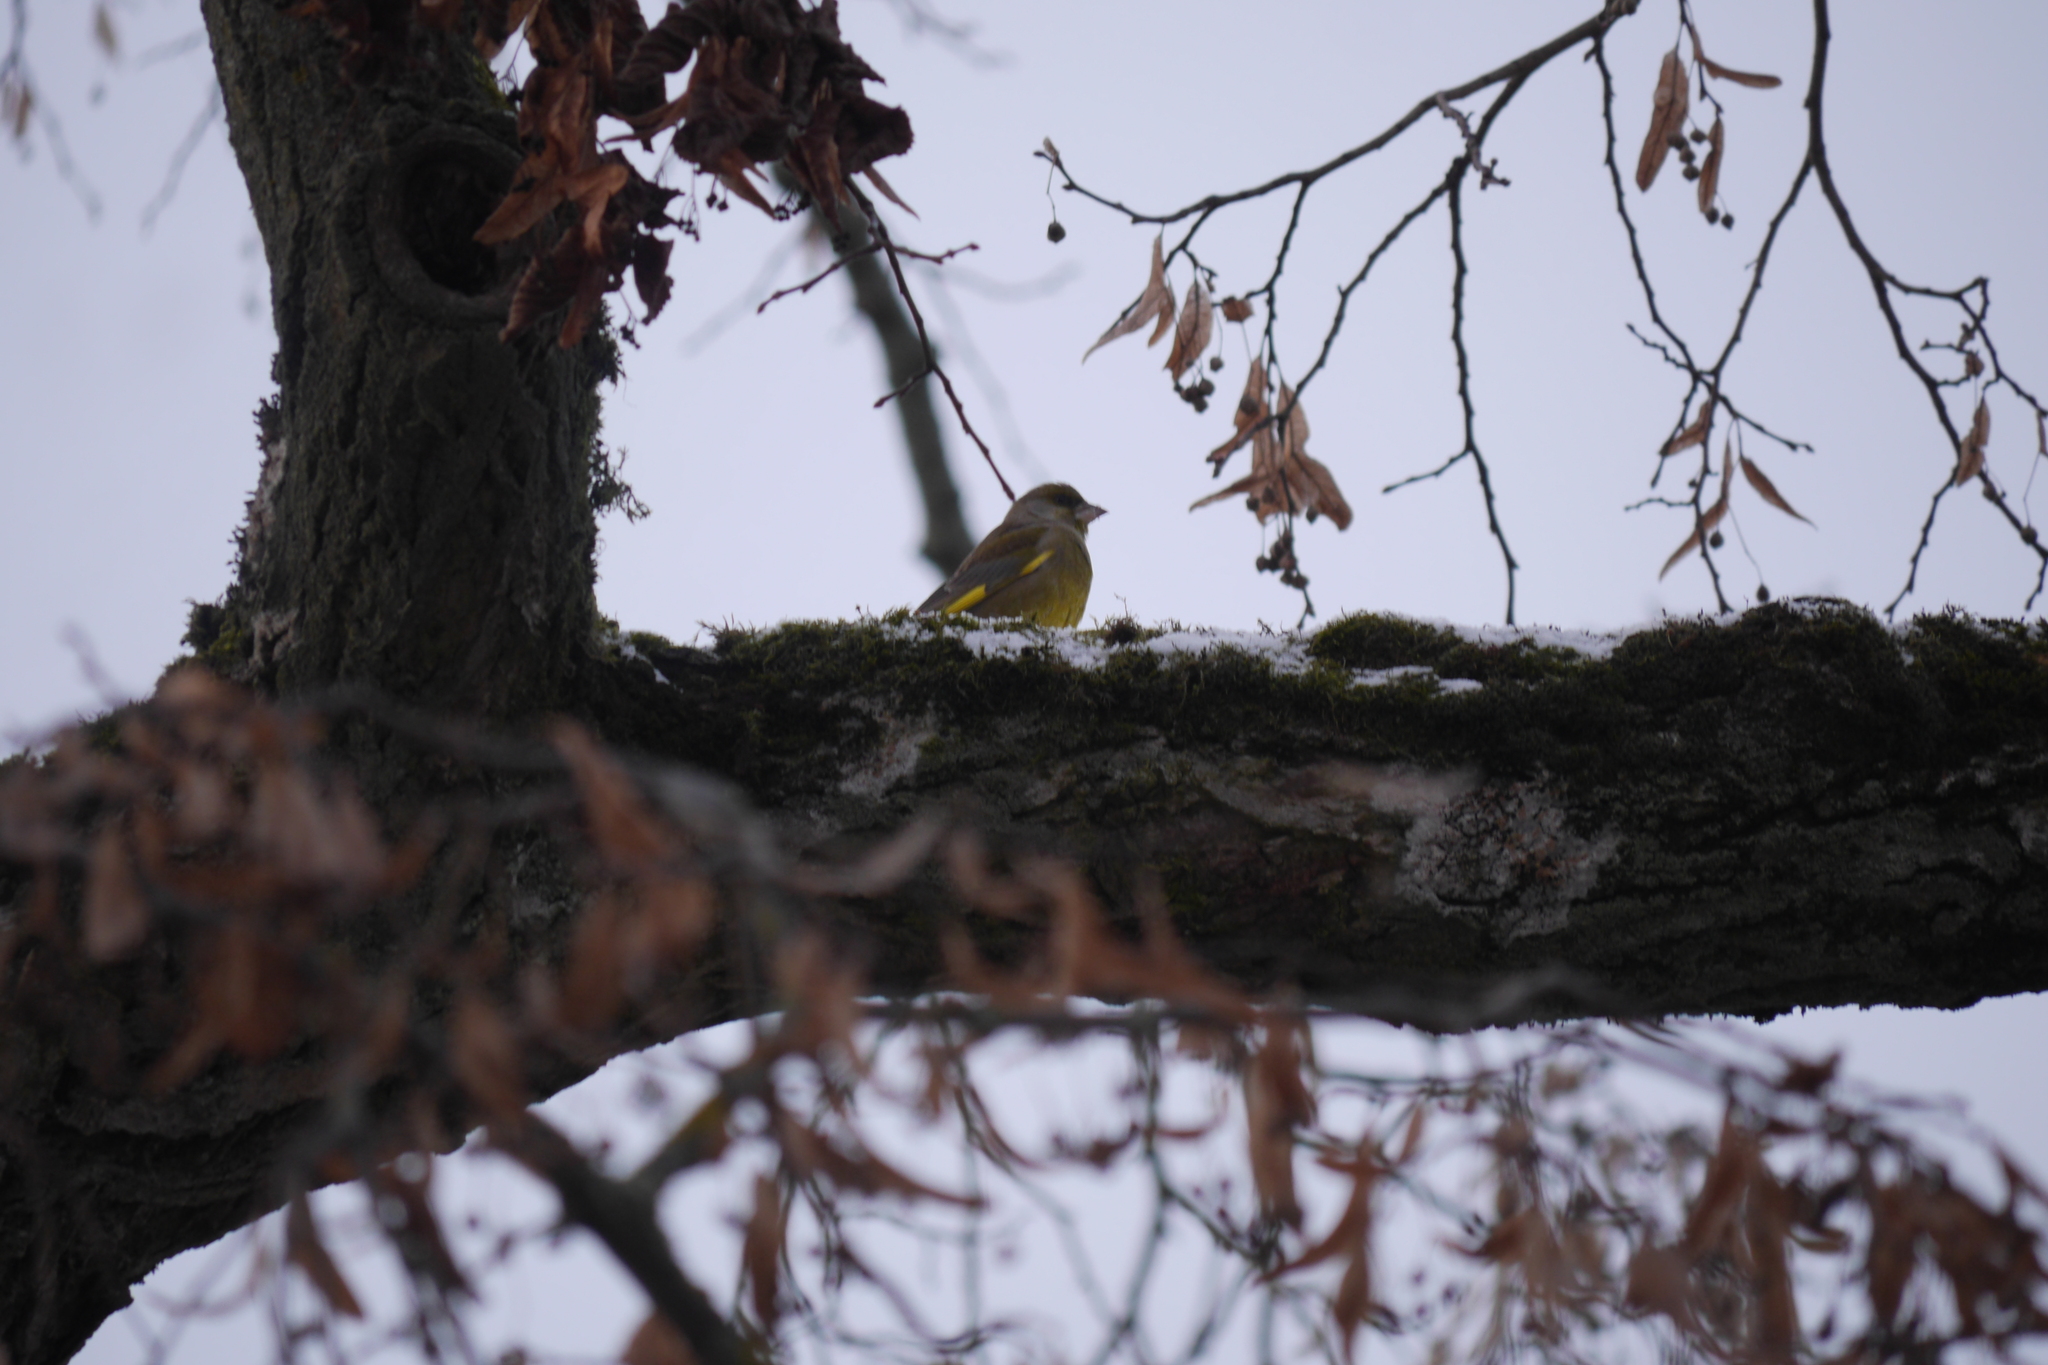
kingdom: Plantae
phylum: Tracheophyta
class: Liliopsida
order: Poales
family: Poaceae
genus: Chloris
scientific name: Chloris chloris
